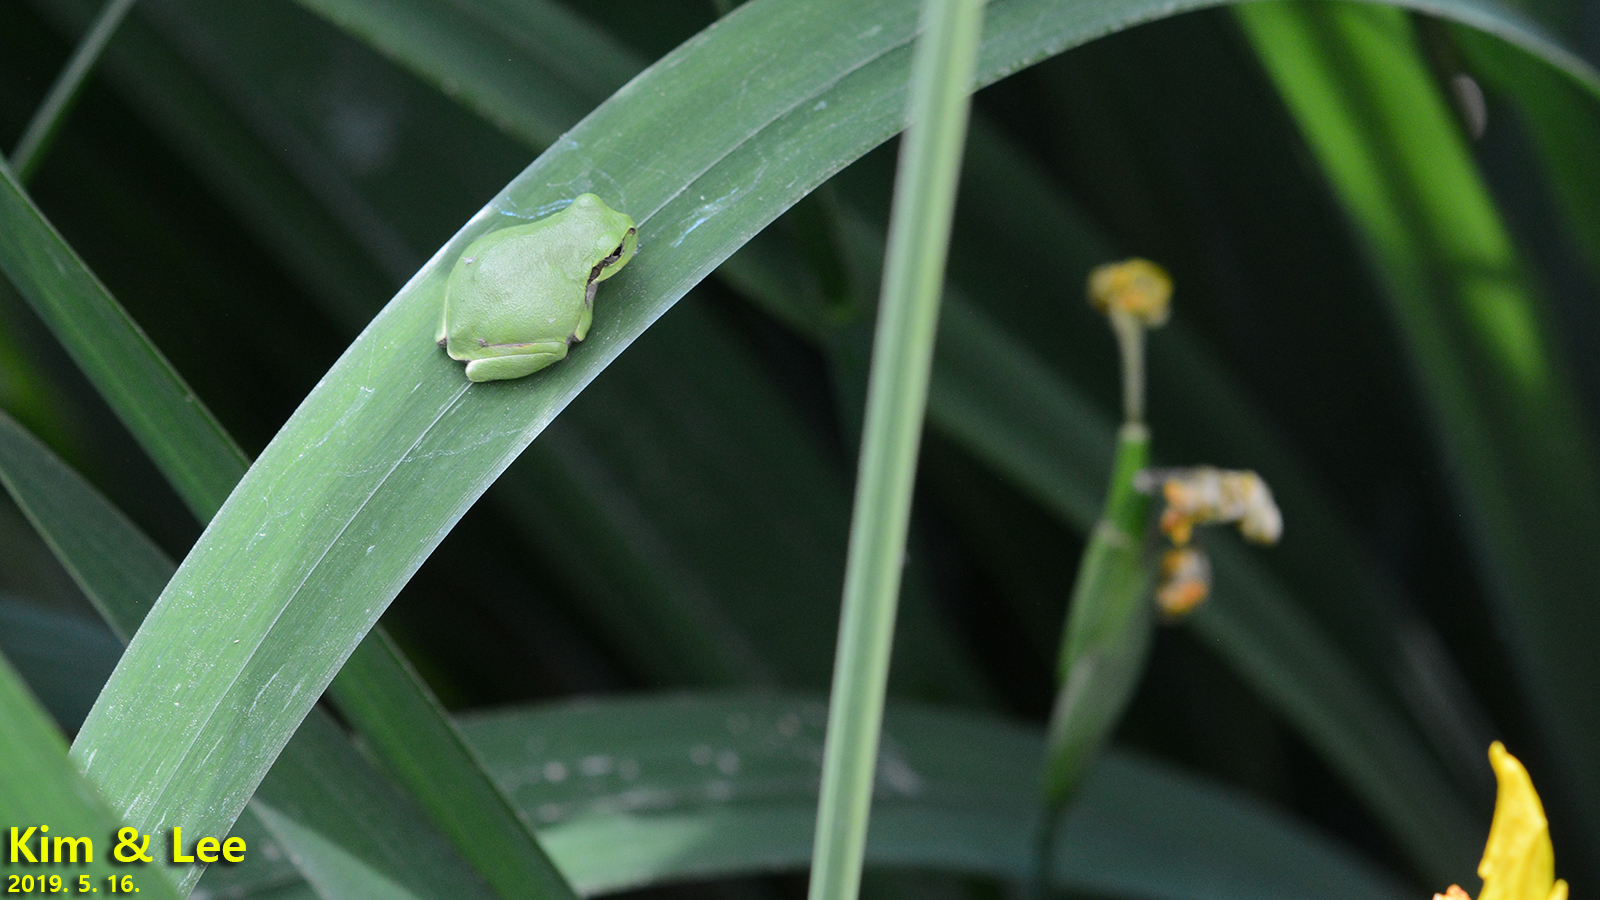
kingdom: Animalia
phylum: Chordata
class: Amphibia
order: Anura
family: Hylidae
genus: Dryophytes
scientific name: Dryophytes japonicus
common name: Japanese treefrog
